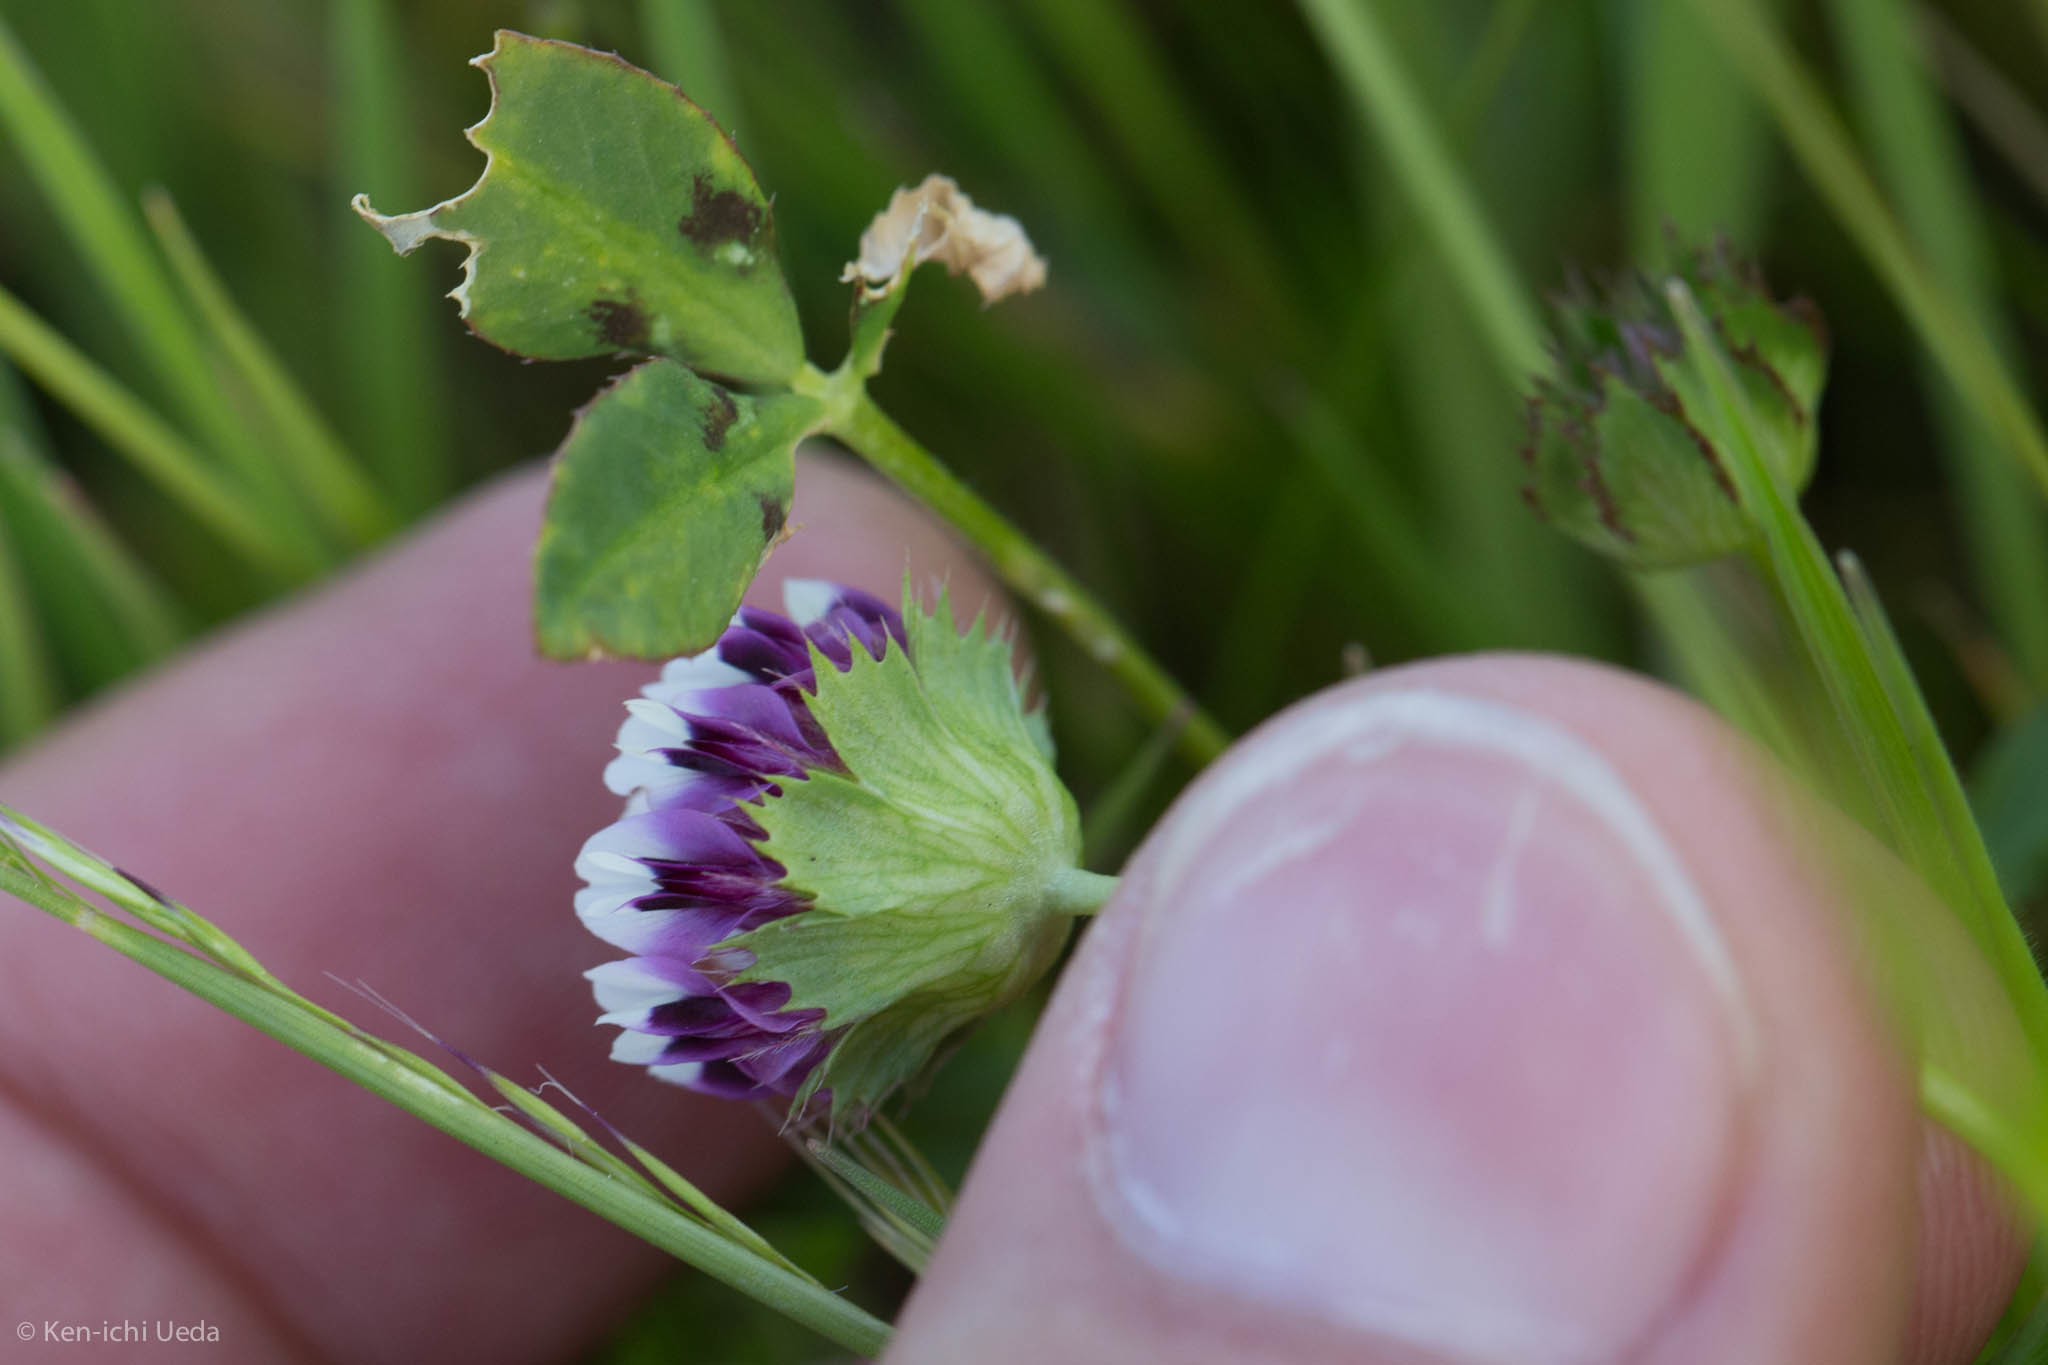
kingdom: Plantae
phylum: Tracheophyta
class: Magnoliopsida
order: Fabales
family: Fabaceae
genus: Trifolium
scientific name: Trifolium barbigerum
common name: Bearded clover
